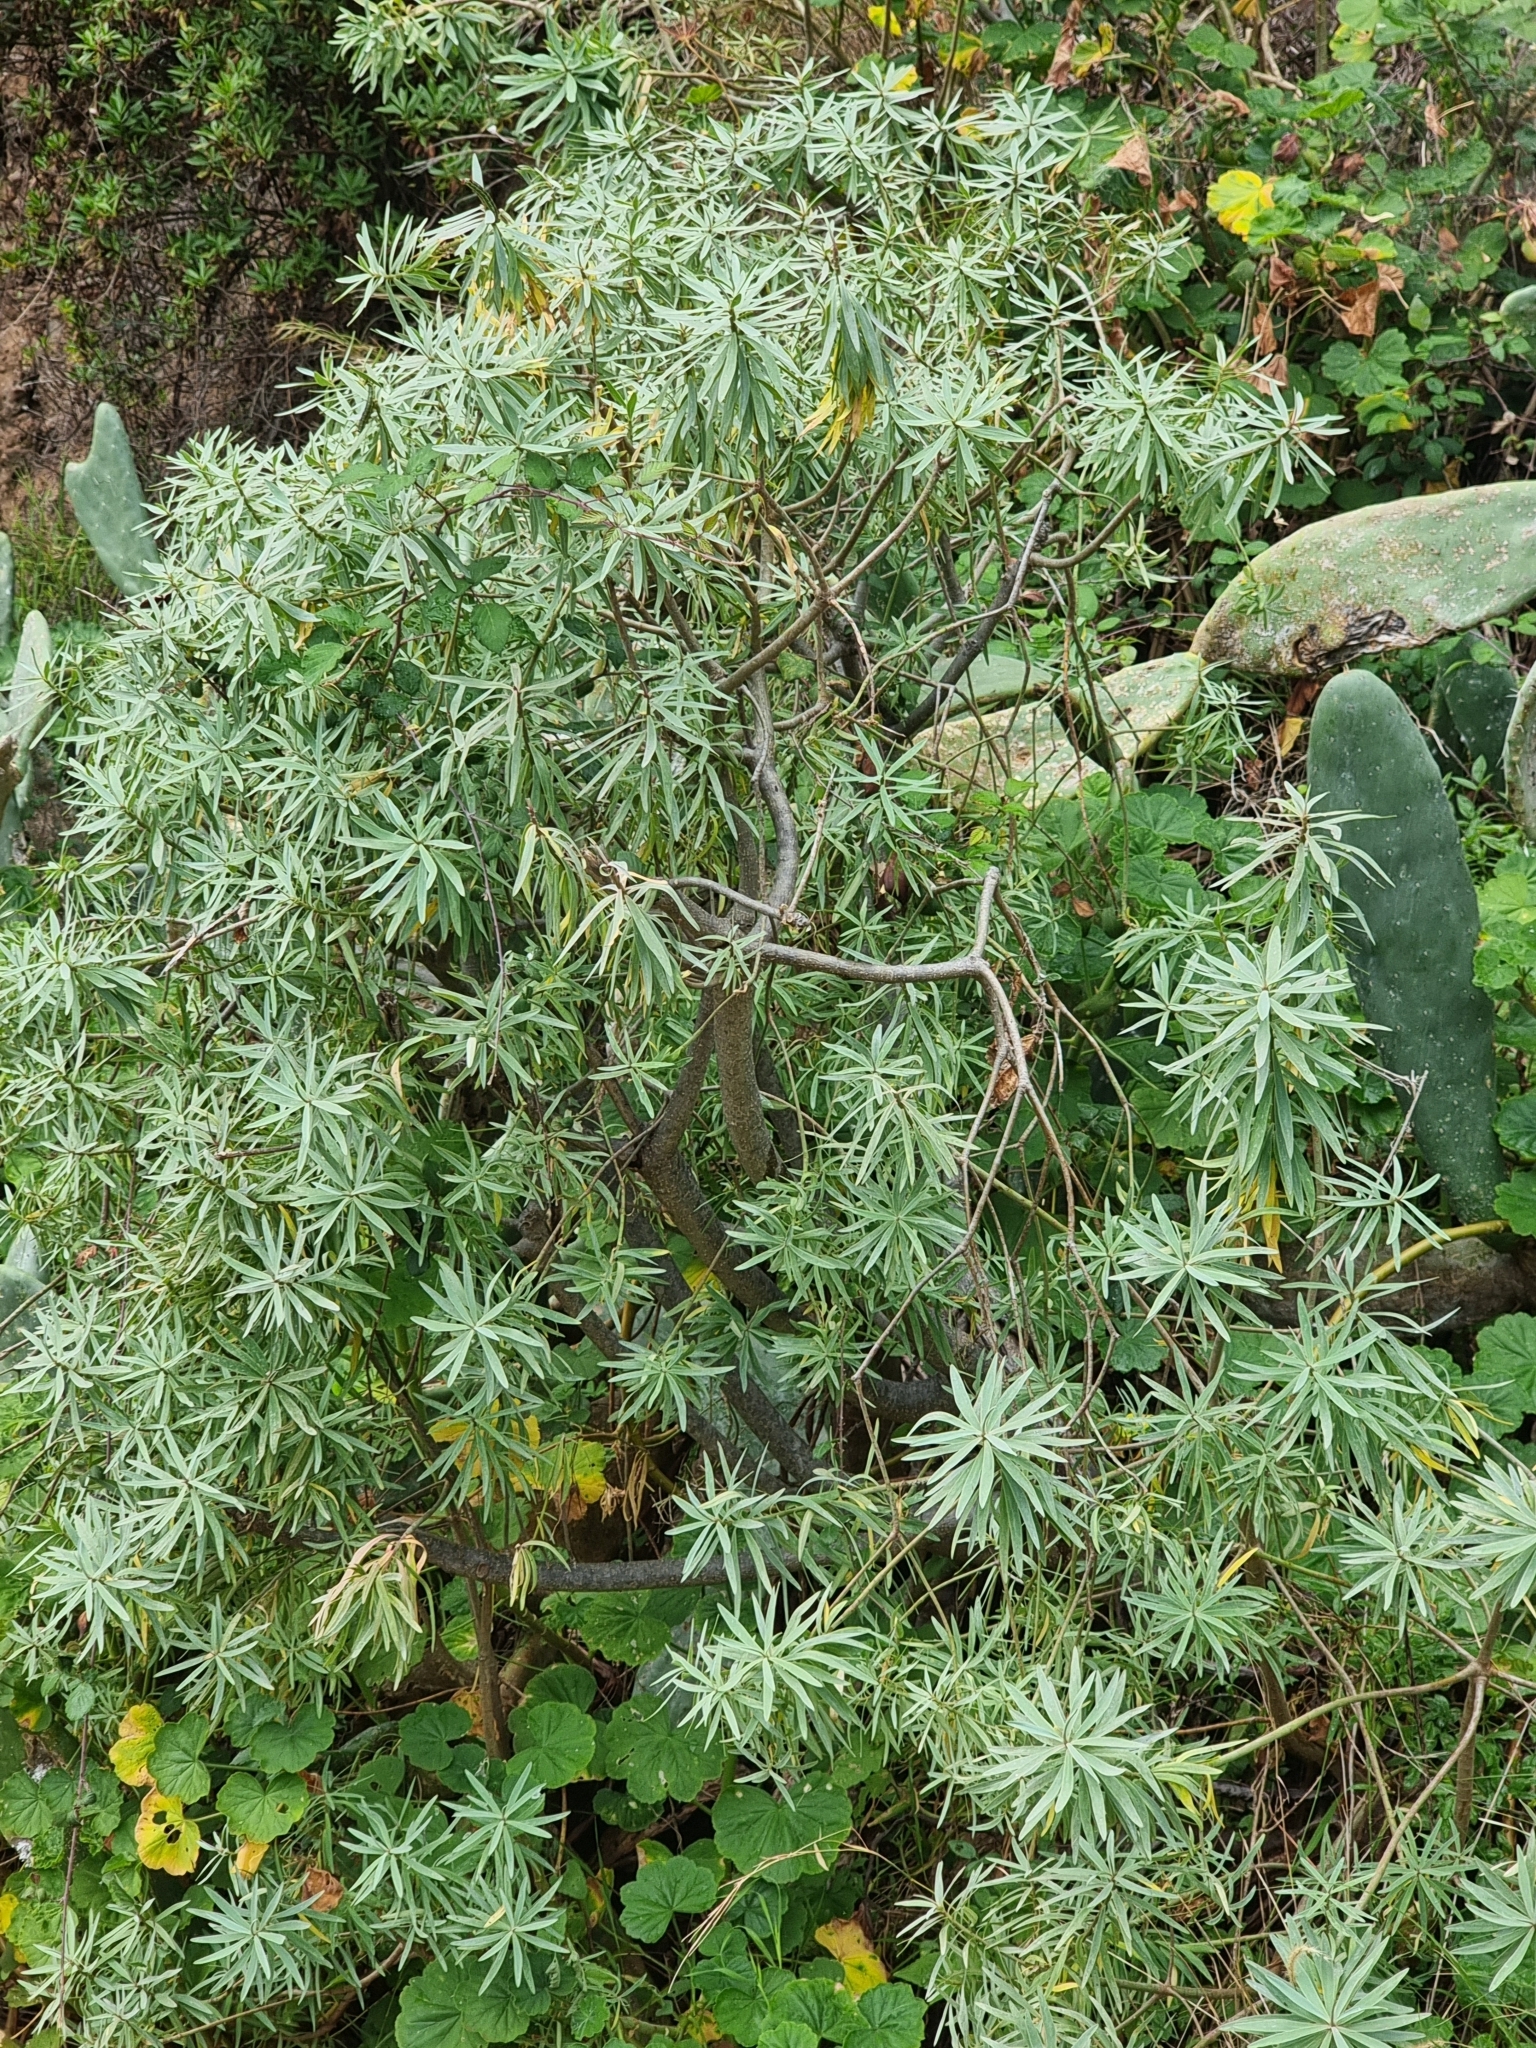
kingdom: Plantae
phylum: Tracheophyta
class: Magnoliopsida
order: Malpighiales
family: Euphorbiaceae
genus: Euphorbia
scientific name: Euphorbia piscatoria
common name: Fish-stunning spurge
